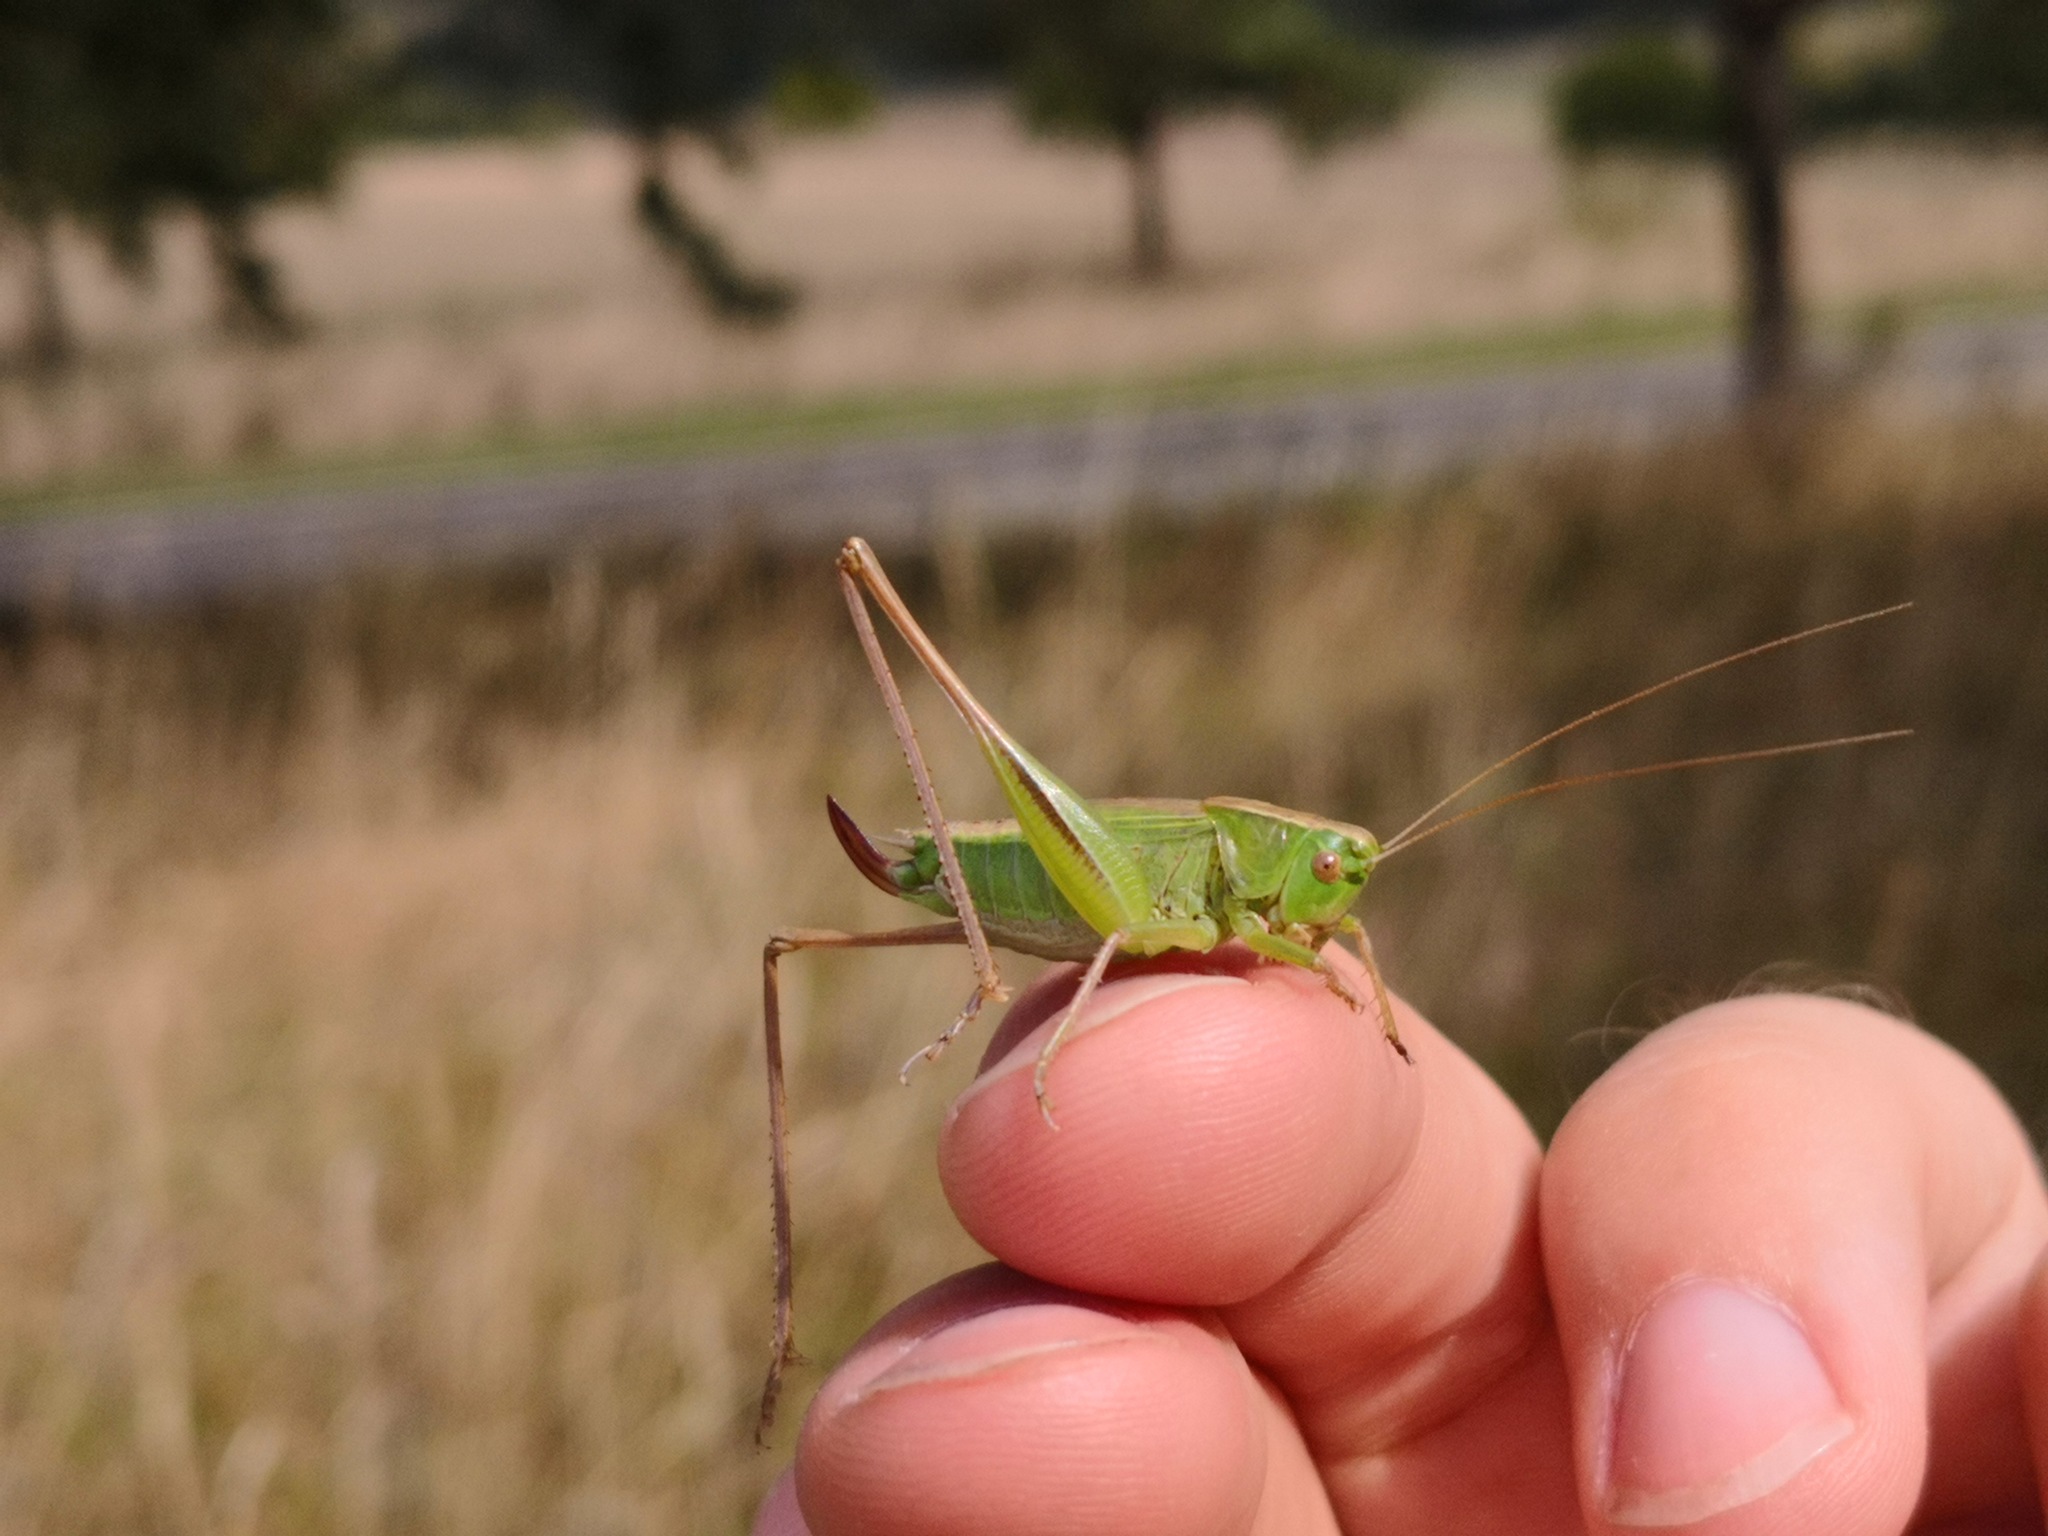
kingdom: Animalia
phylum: Arthropoda
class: Insecta
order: Orthoptera
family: Tettigoniidae
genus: Bicolorana
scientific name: Bicolorana bicolor
